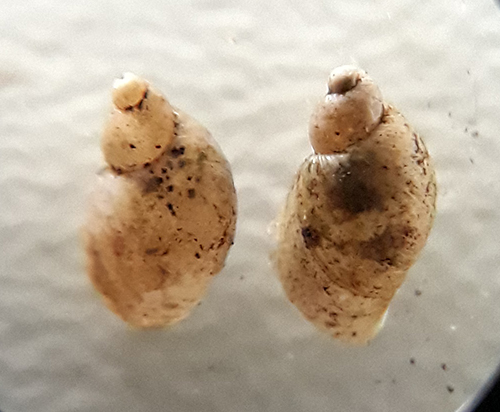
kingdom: Animalia
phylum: Mollusca
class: Gastropoda
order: Stylommatophora
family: Succineidae
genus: Succinella
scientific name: Succinella oblonga
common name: Small amber snail
